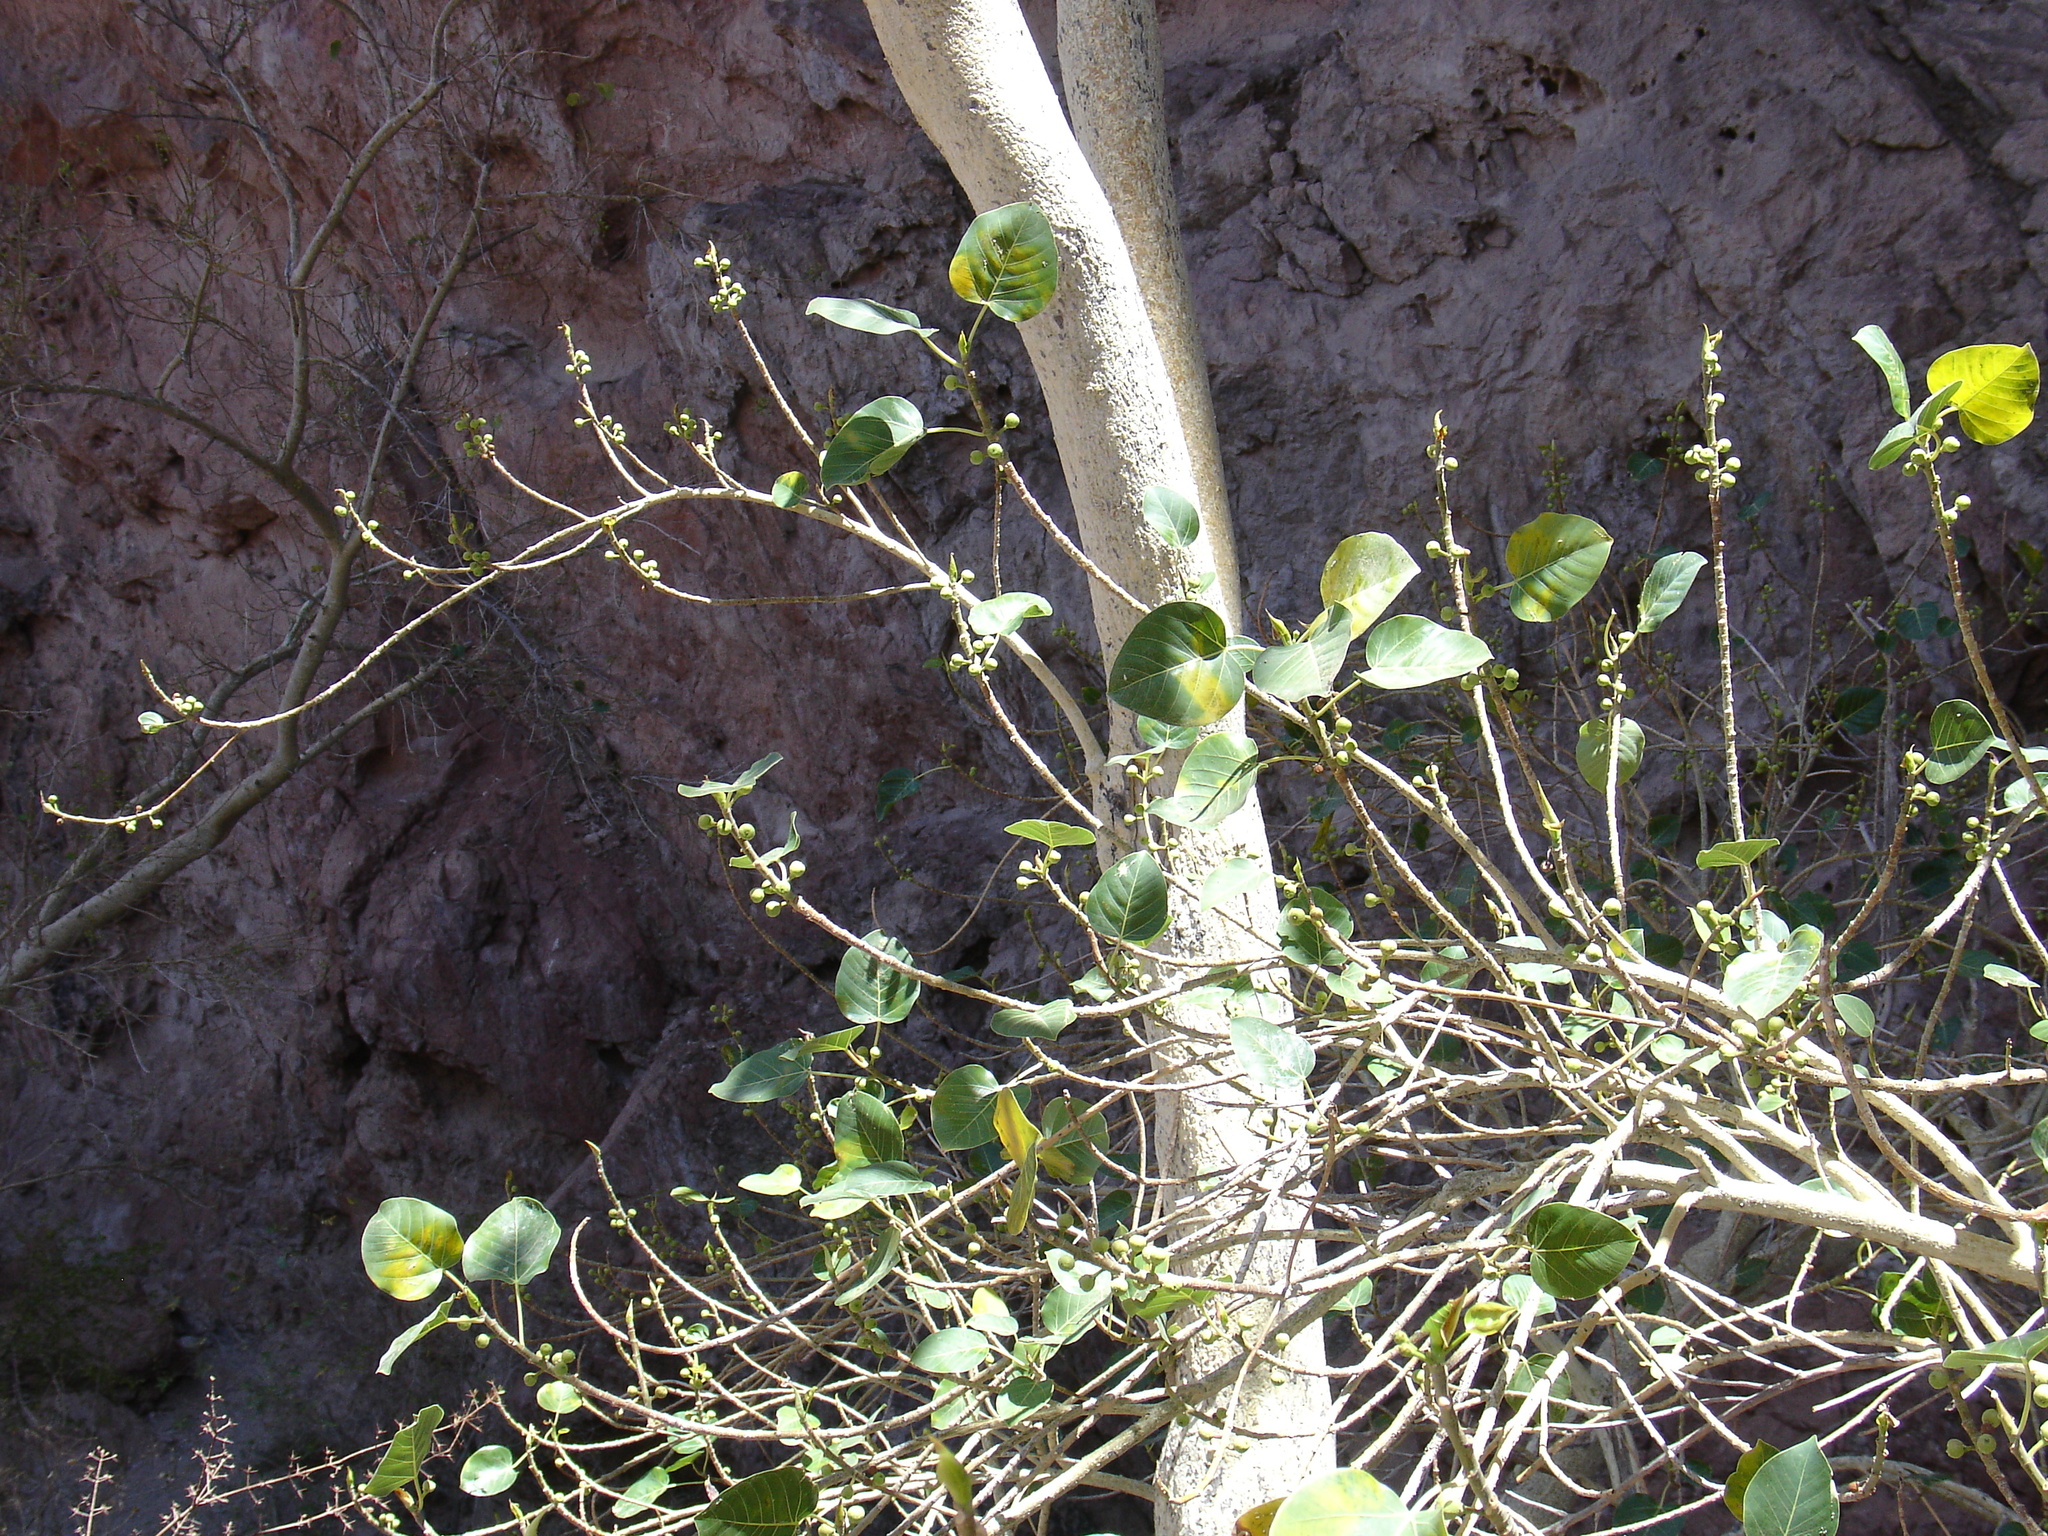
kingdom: Plantae
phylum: Tracheophyta
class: Magnoliopsida
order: Rosales
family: Moraceae
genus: Ficus
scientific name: Ficus petiolaris
